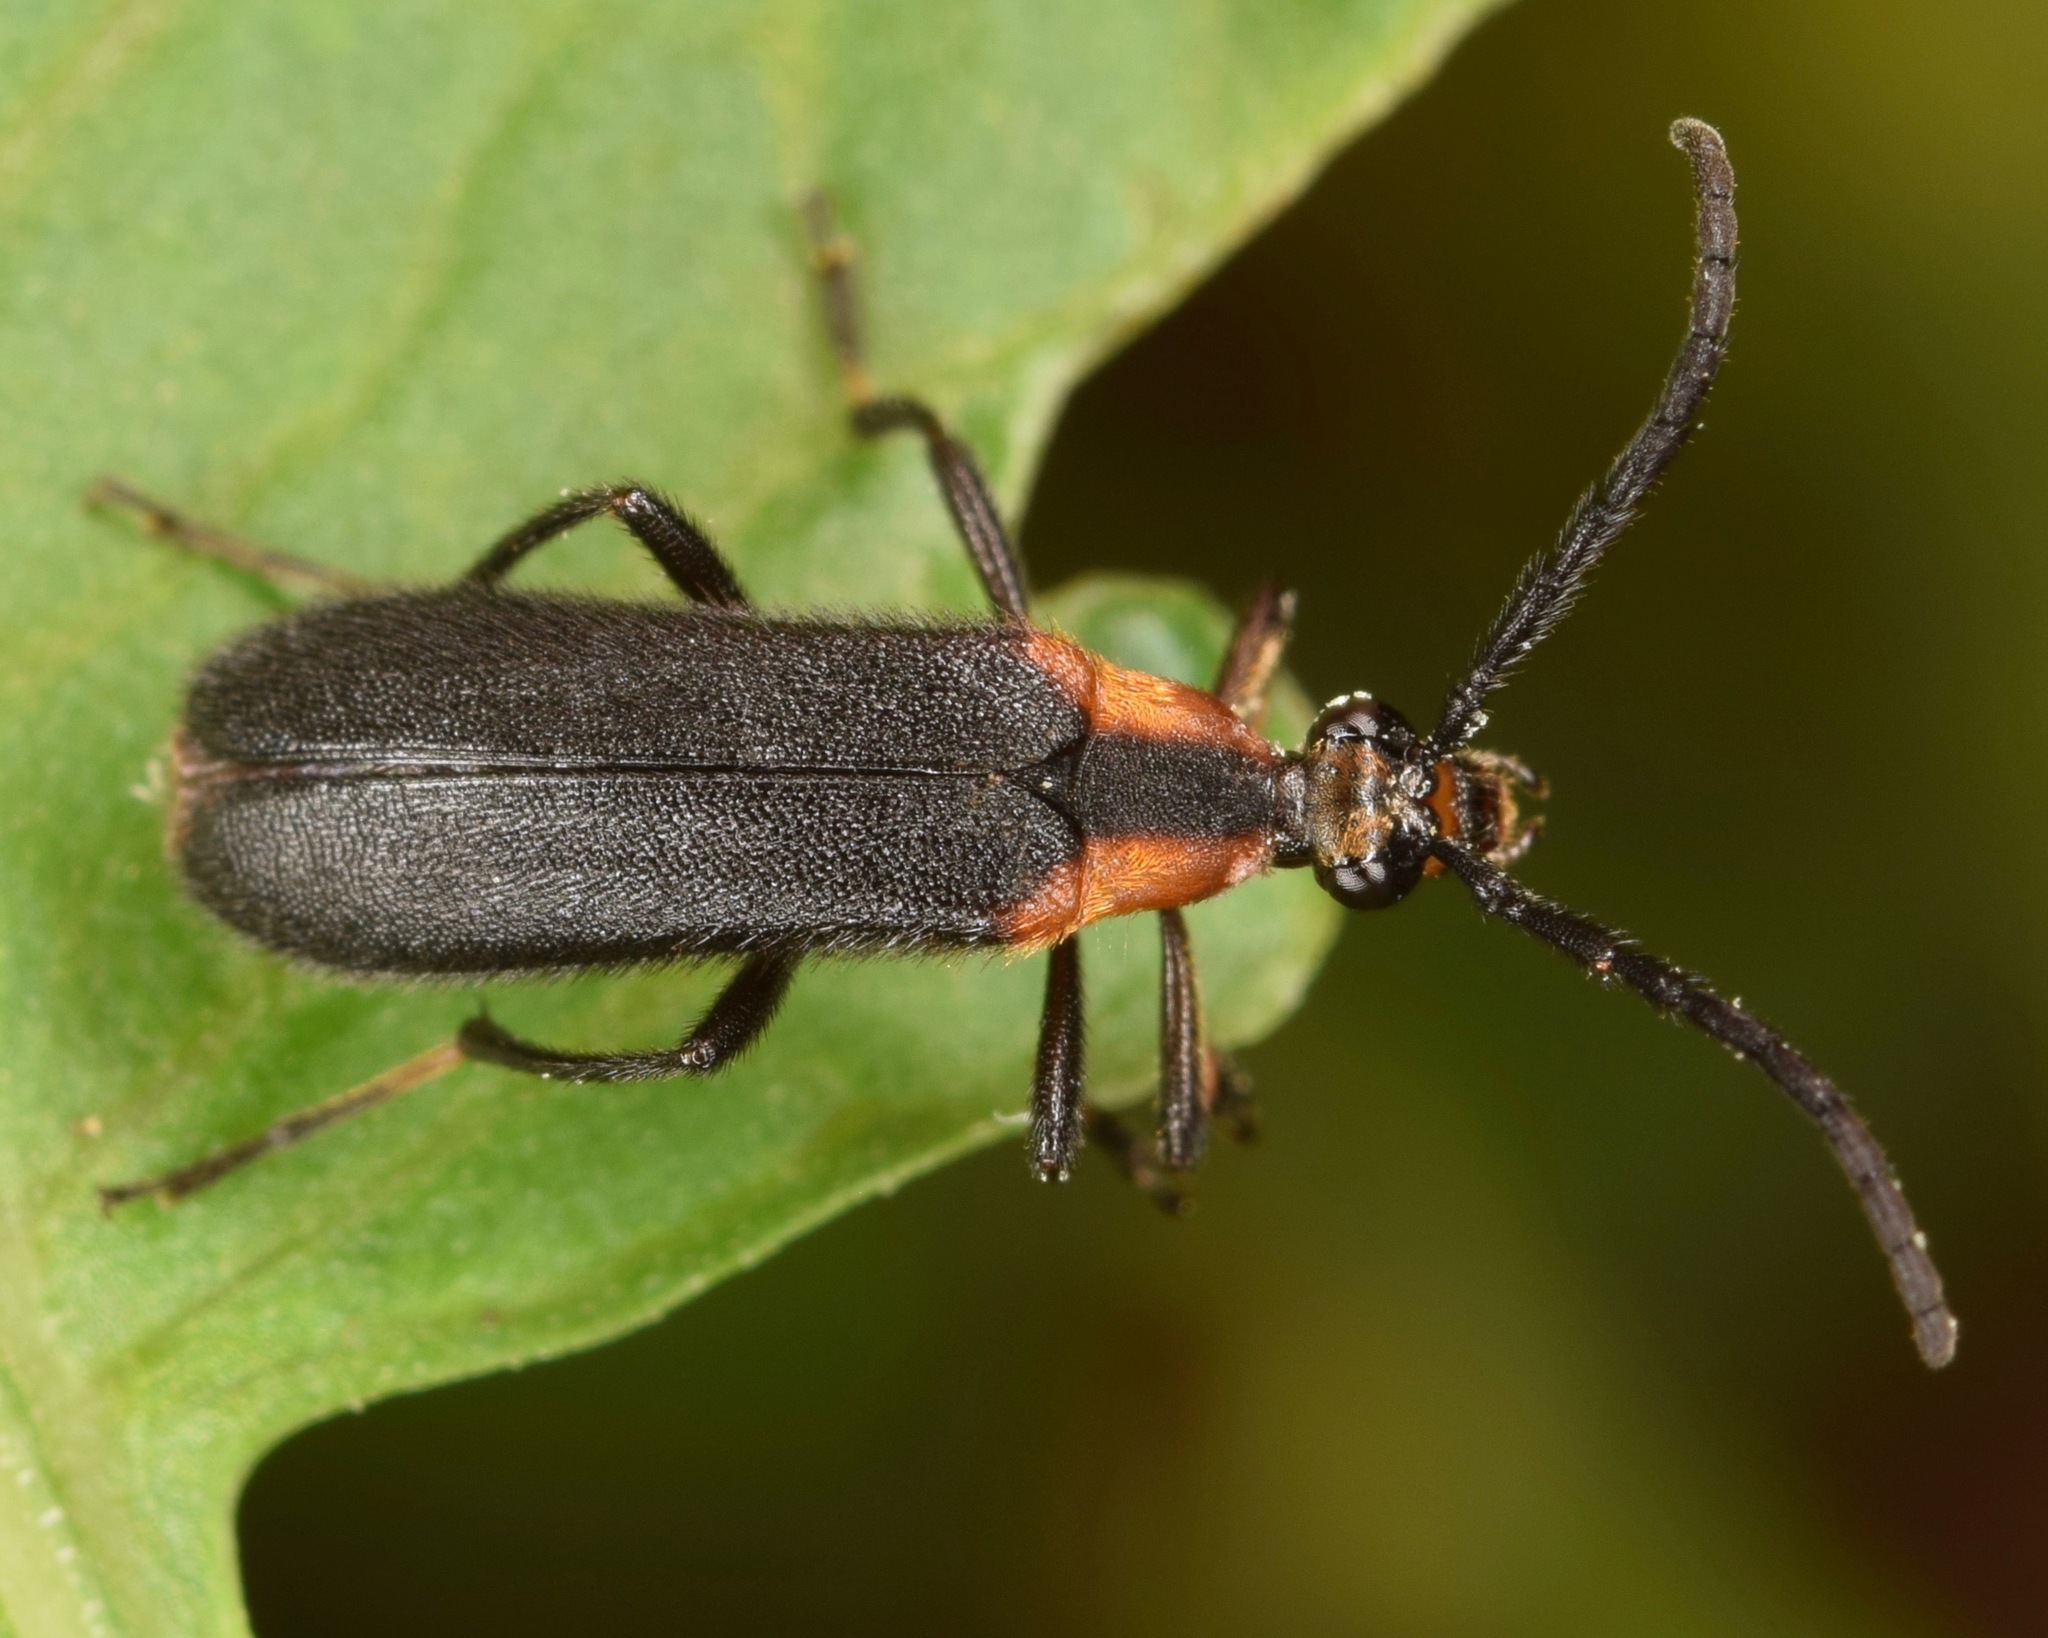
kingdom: Animalia
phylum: Arthropoda
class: Insecta
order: Coleoptera
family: Cerambycidae
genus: Lycochoriolaus
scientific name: Lycochoriolaus lateralis
